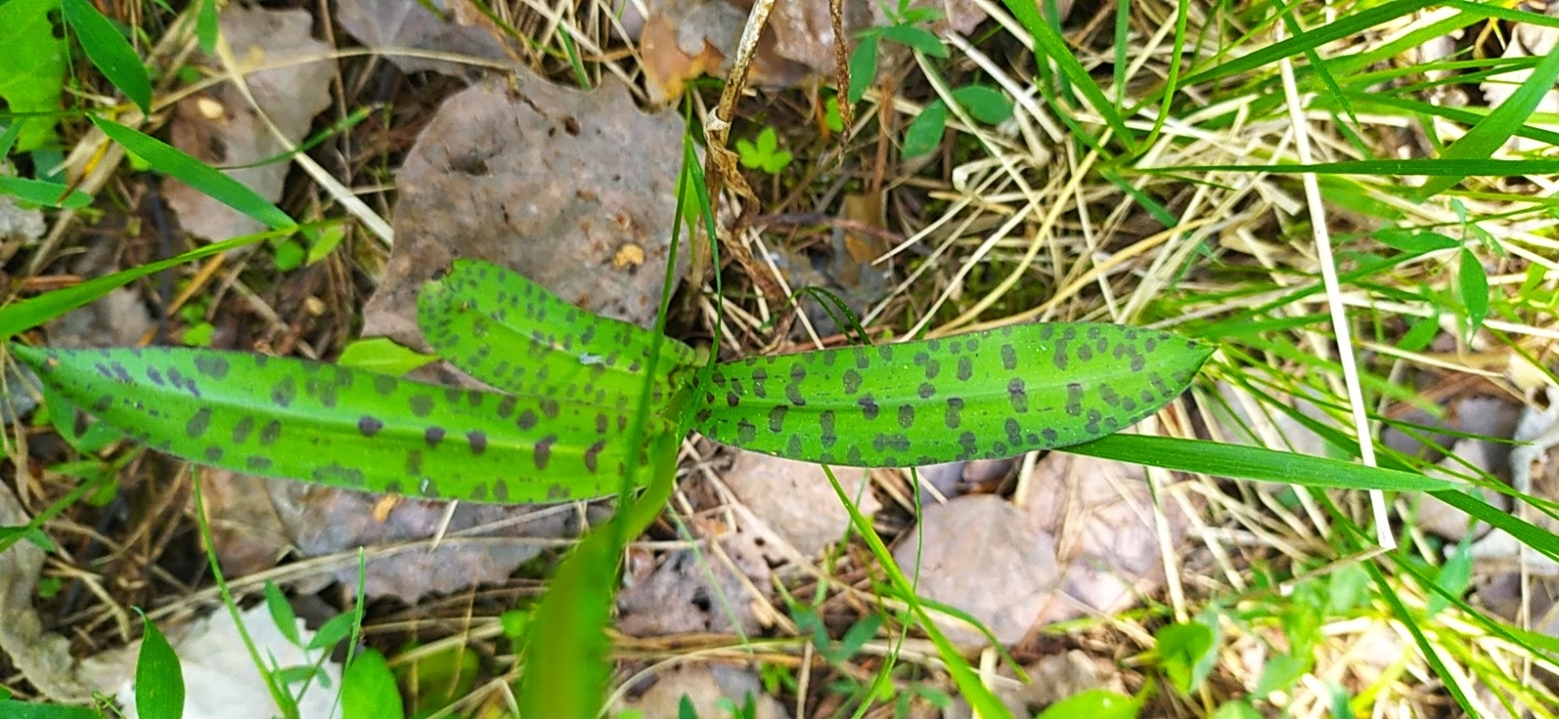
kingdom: Plantae
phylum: Tracheophyta
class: Liliopsida
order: Asparagales
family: Orchidaceae
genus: Dactylorhiza
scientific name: Dactylorhiza maculata
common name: Heath spotted-orchid
